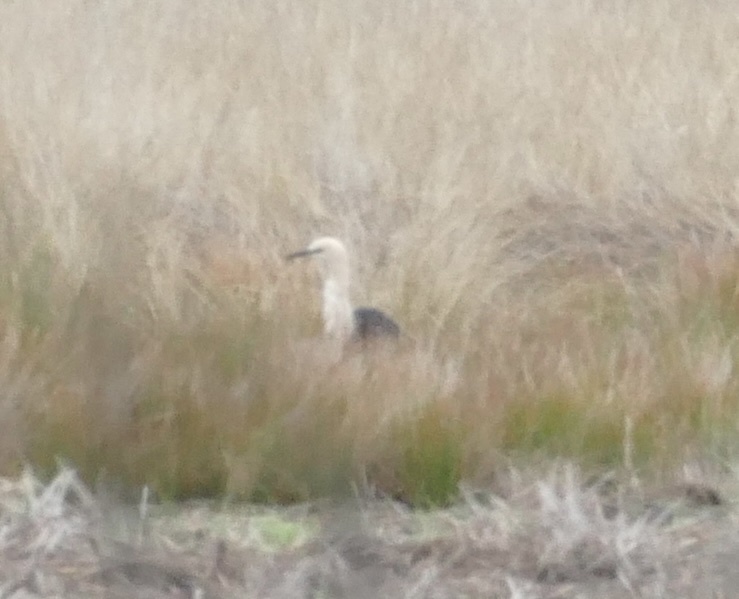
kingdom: Animalia
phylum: Chordata
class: Aves
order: Pelecaniformes
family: Ardeidae
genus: Ardea
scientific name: Ardea pacifica
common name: White-necked heron
